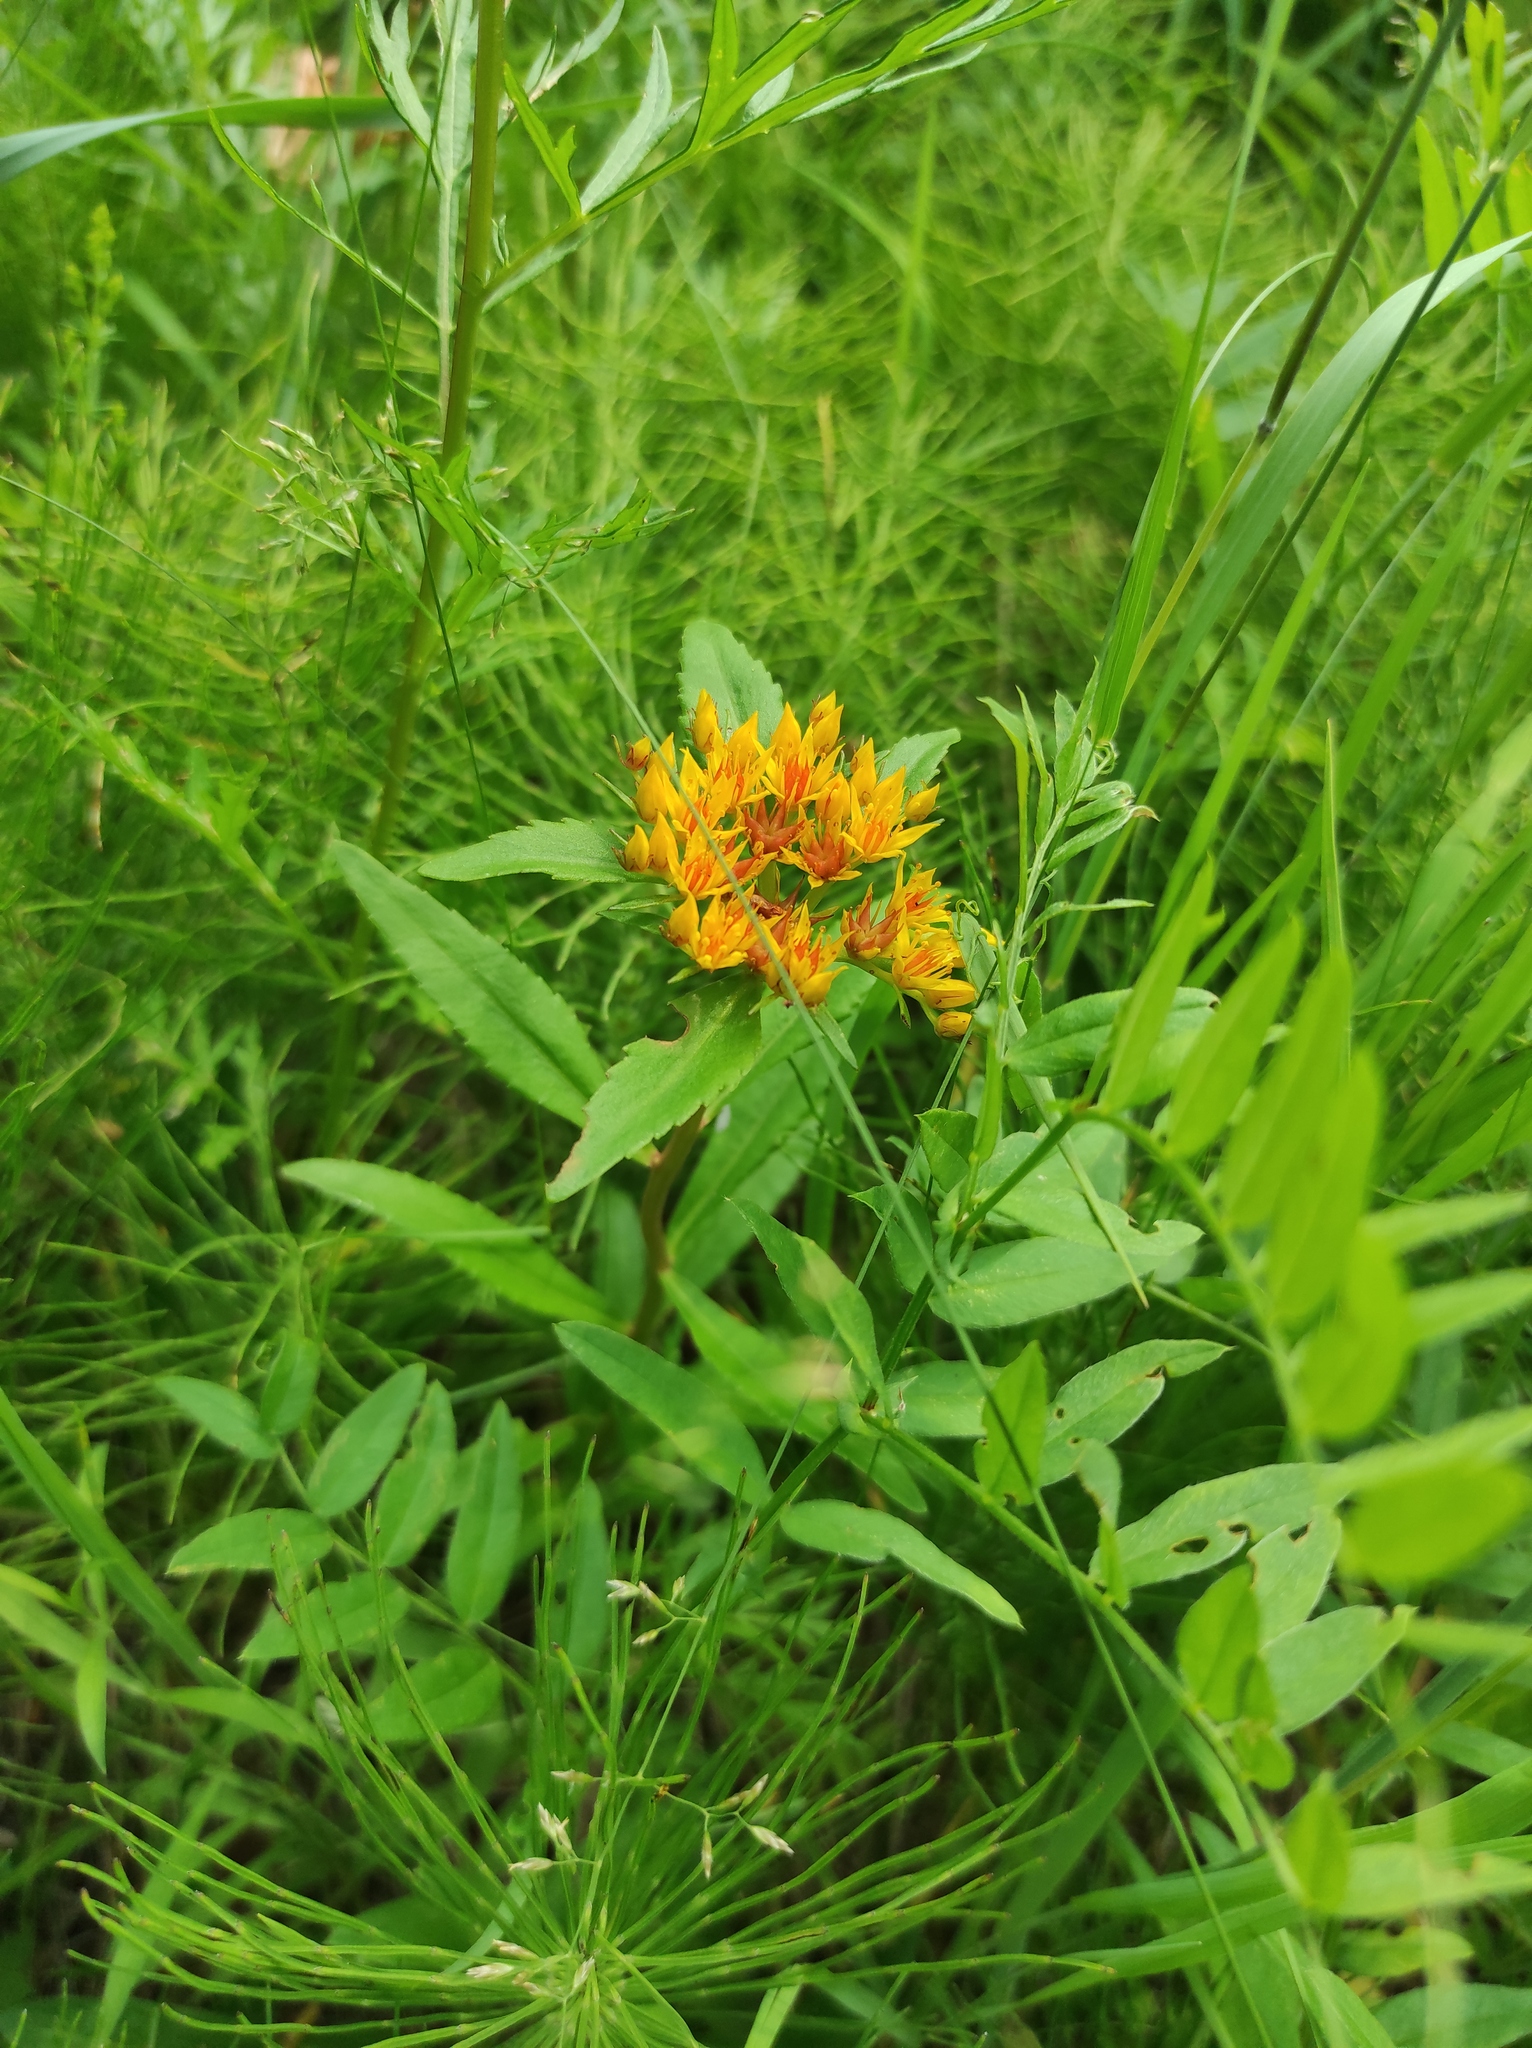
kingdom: Plantae
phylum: Tracheophyta
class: Magnoliopsida
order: Saxifragales
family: Crassulaceae
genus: Phedimus
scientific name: Phedimus aizoon
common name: Orpin aizoon
